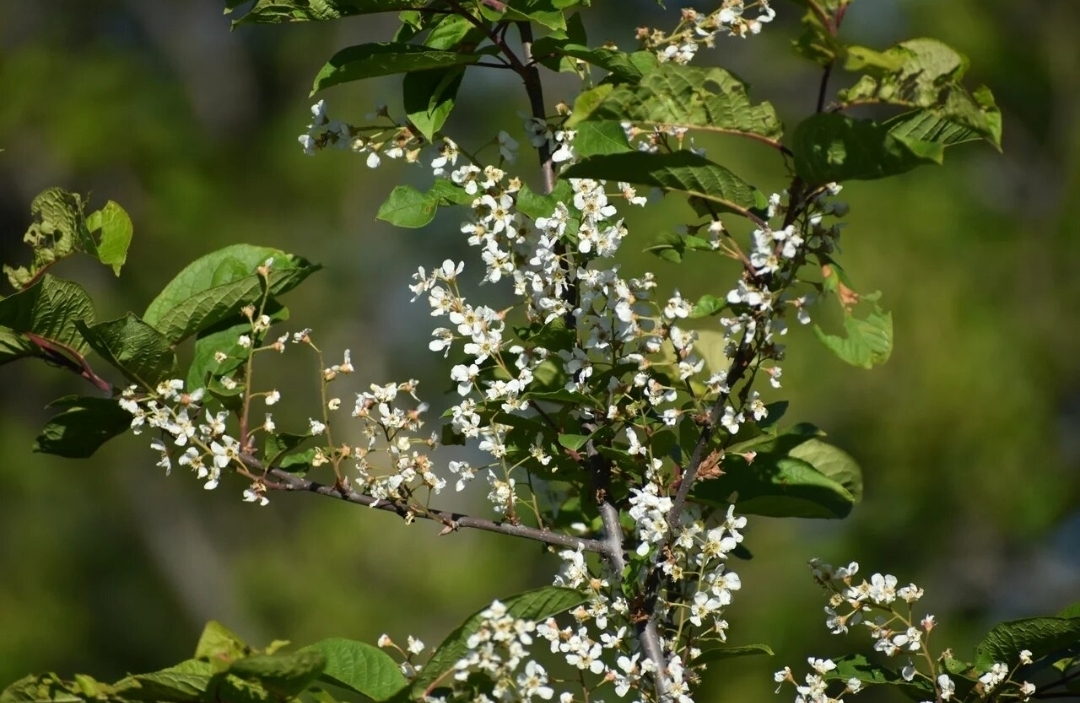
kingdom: Plantae
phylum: Tracheophyta
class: Magnoliopsida
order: Rosales
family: Rosaceae
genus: Prunus
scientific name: Prunus padus
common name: Bird cherry
